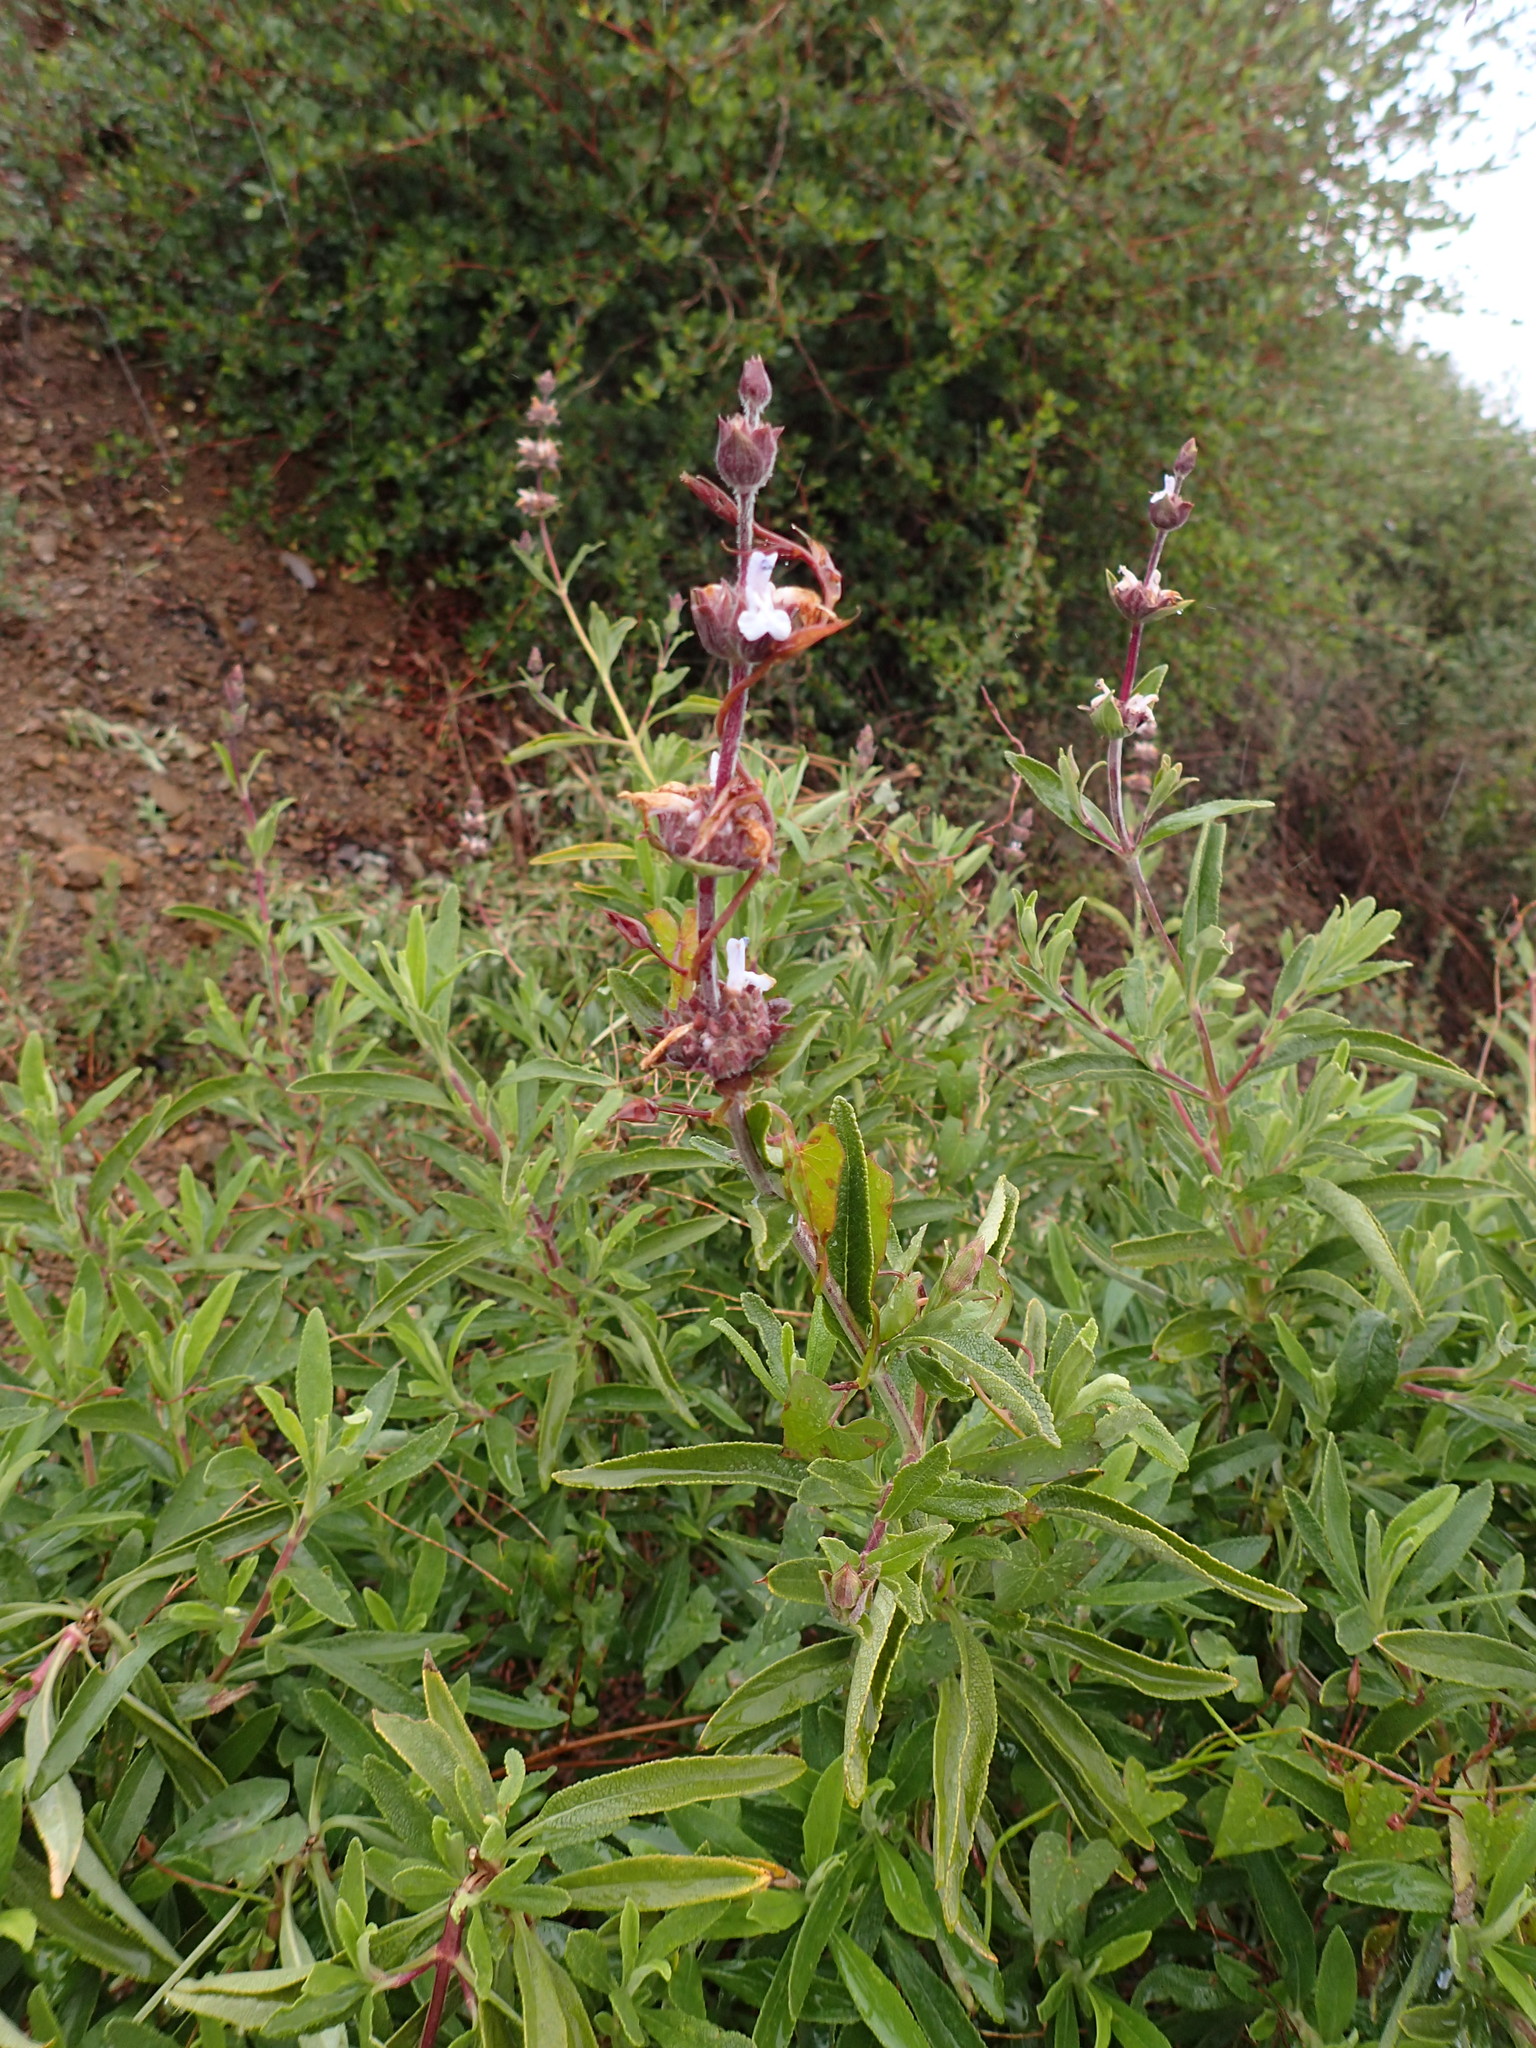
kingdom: Plantae
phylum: Tracheophyta
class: Magnoliopsida
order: Lamiales
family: Lamiaceae
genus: Salvia
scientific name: Salvia mellifera
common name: Black sage
